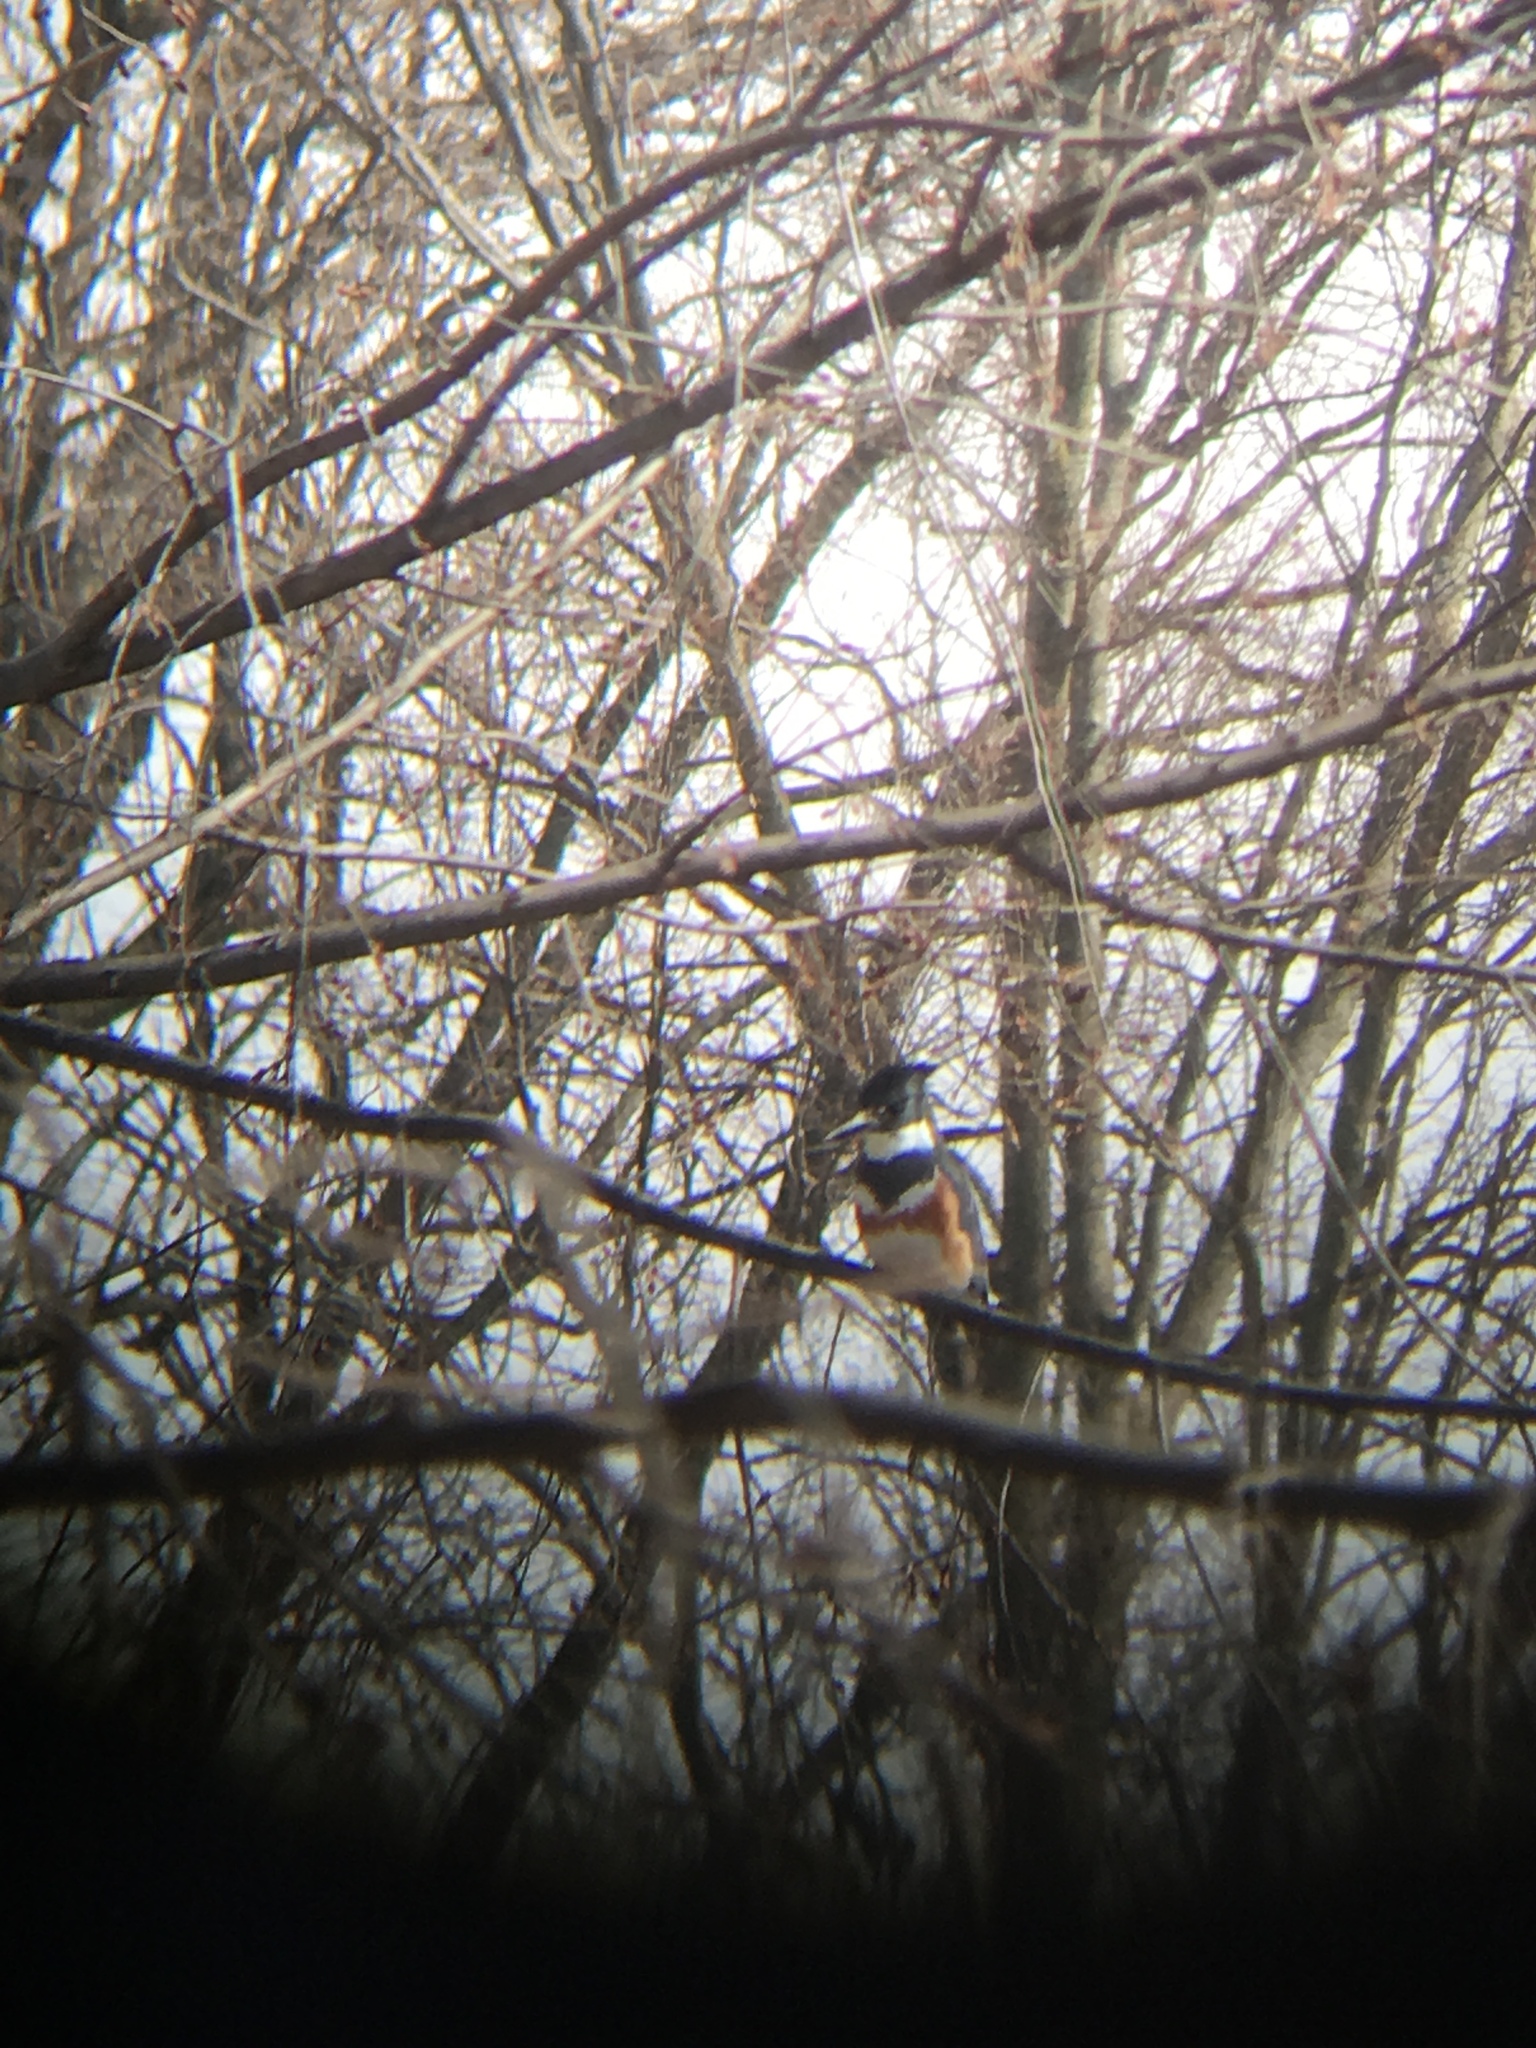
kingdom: Animalia
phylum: Chordata
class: Aves
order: Coraciiformes
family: Alcedinidae
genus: Megaceryle
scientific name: Megaceryle alcyon
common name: Belted kingfisher
